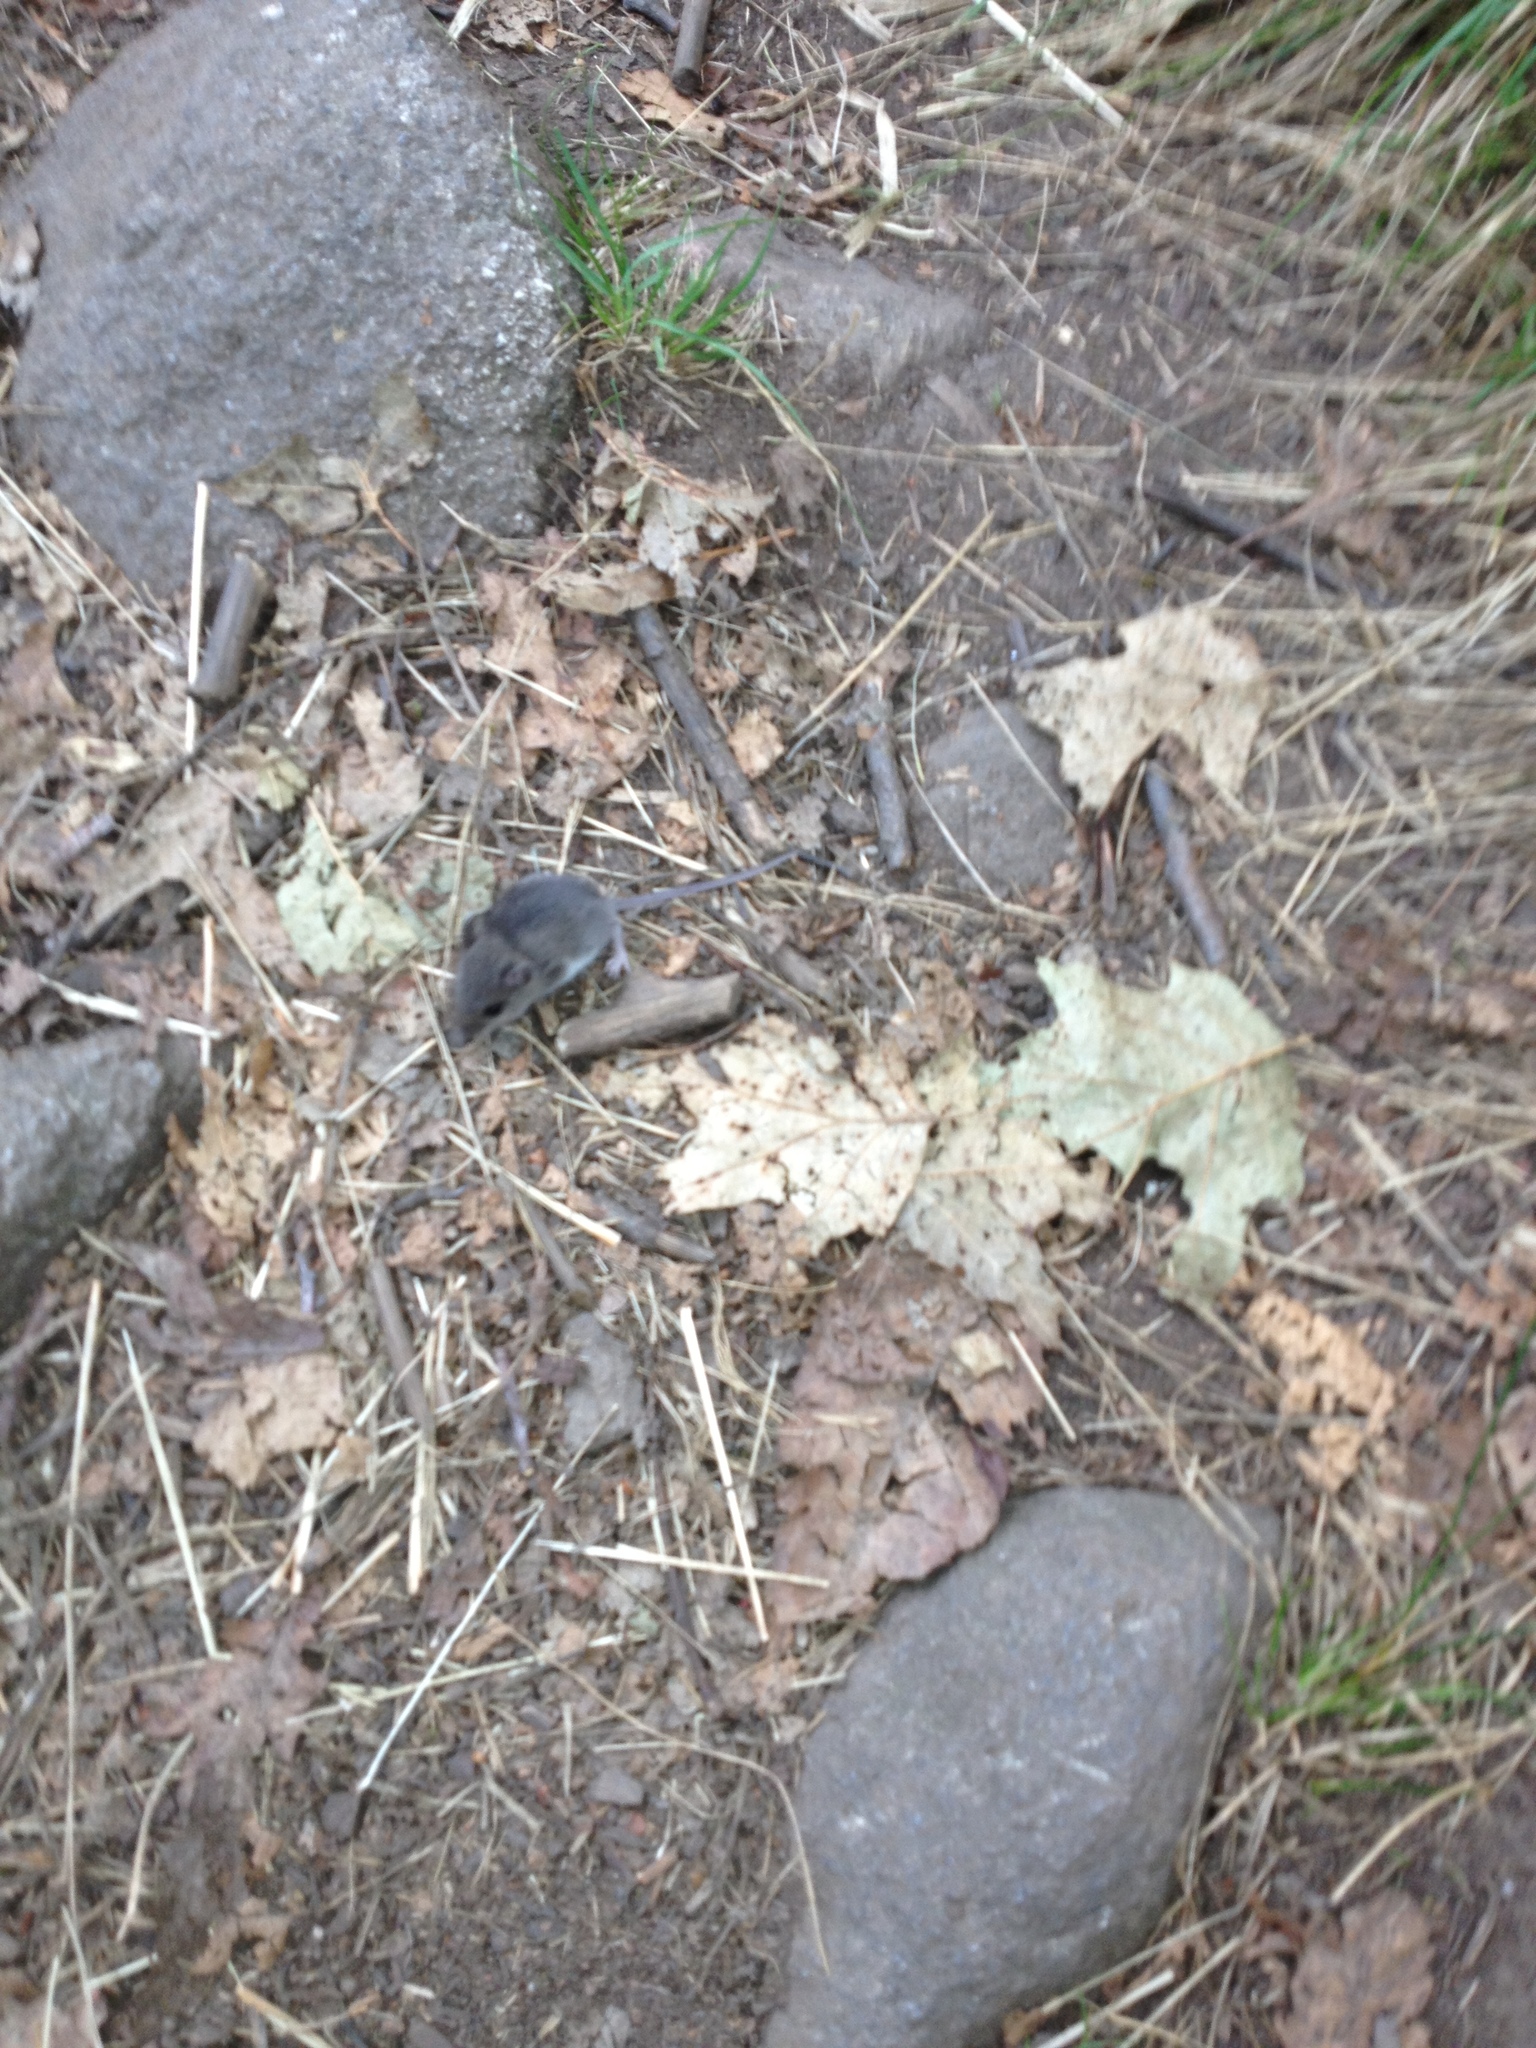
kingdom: Animalia
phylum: Chordata
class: Mammalia
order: Rodentia
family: Cricetidae
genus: Peromyscus
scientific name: Peromyscus leucopus
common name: White-footed deermouse
